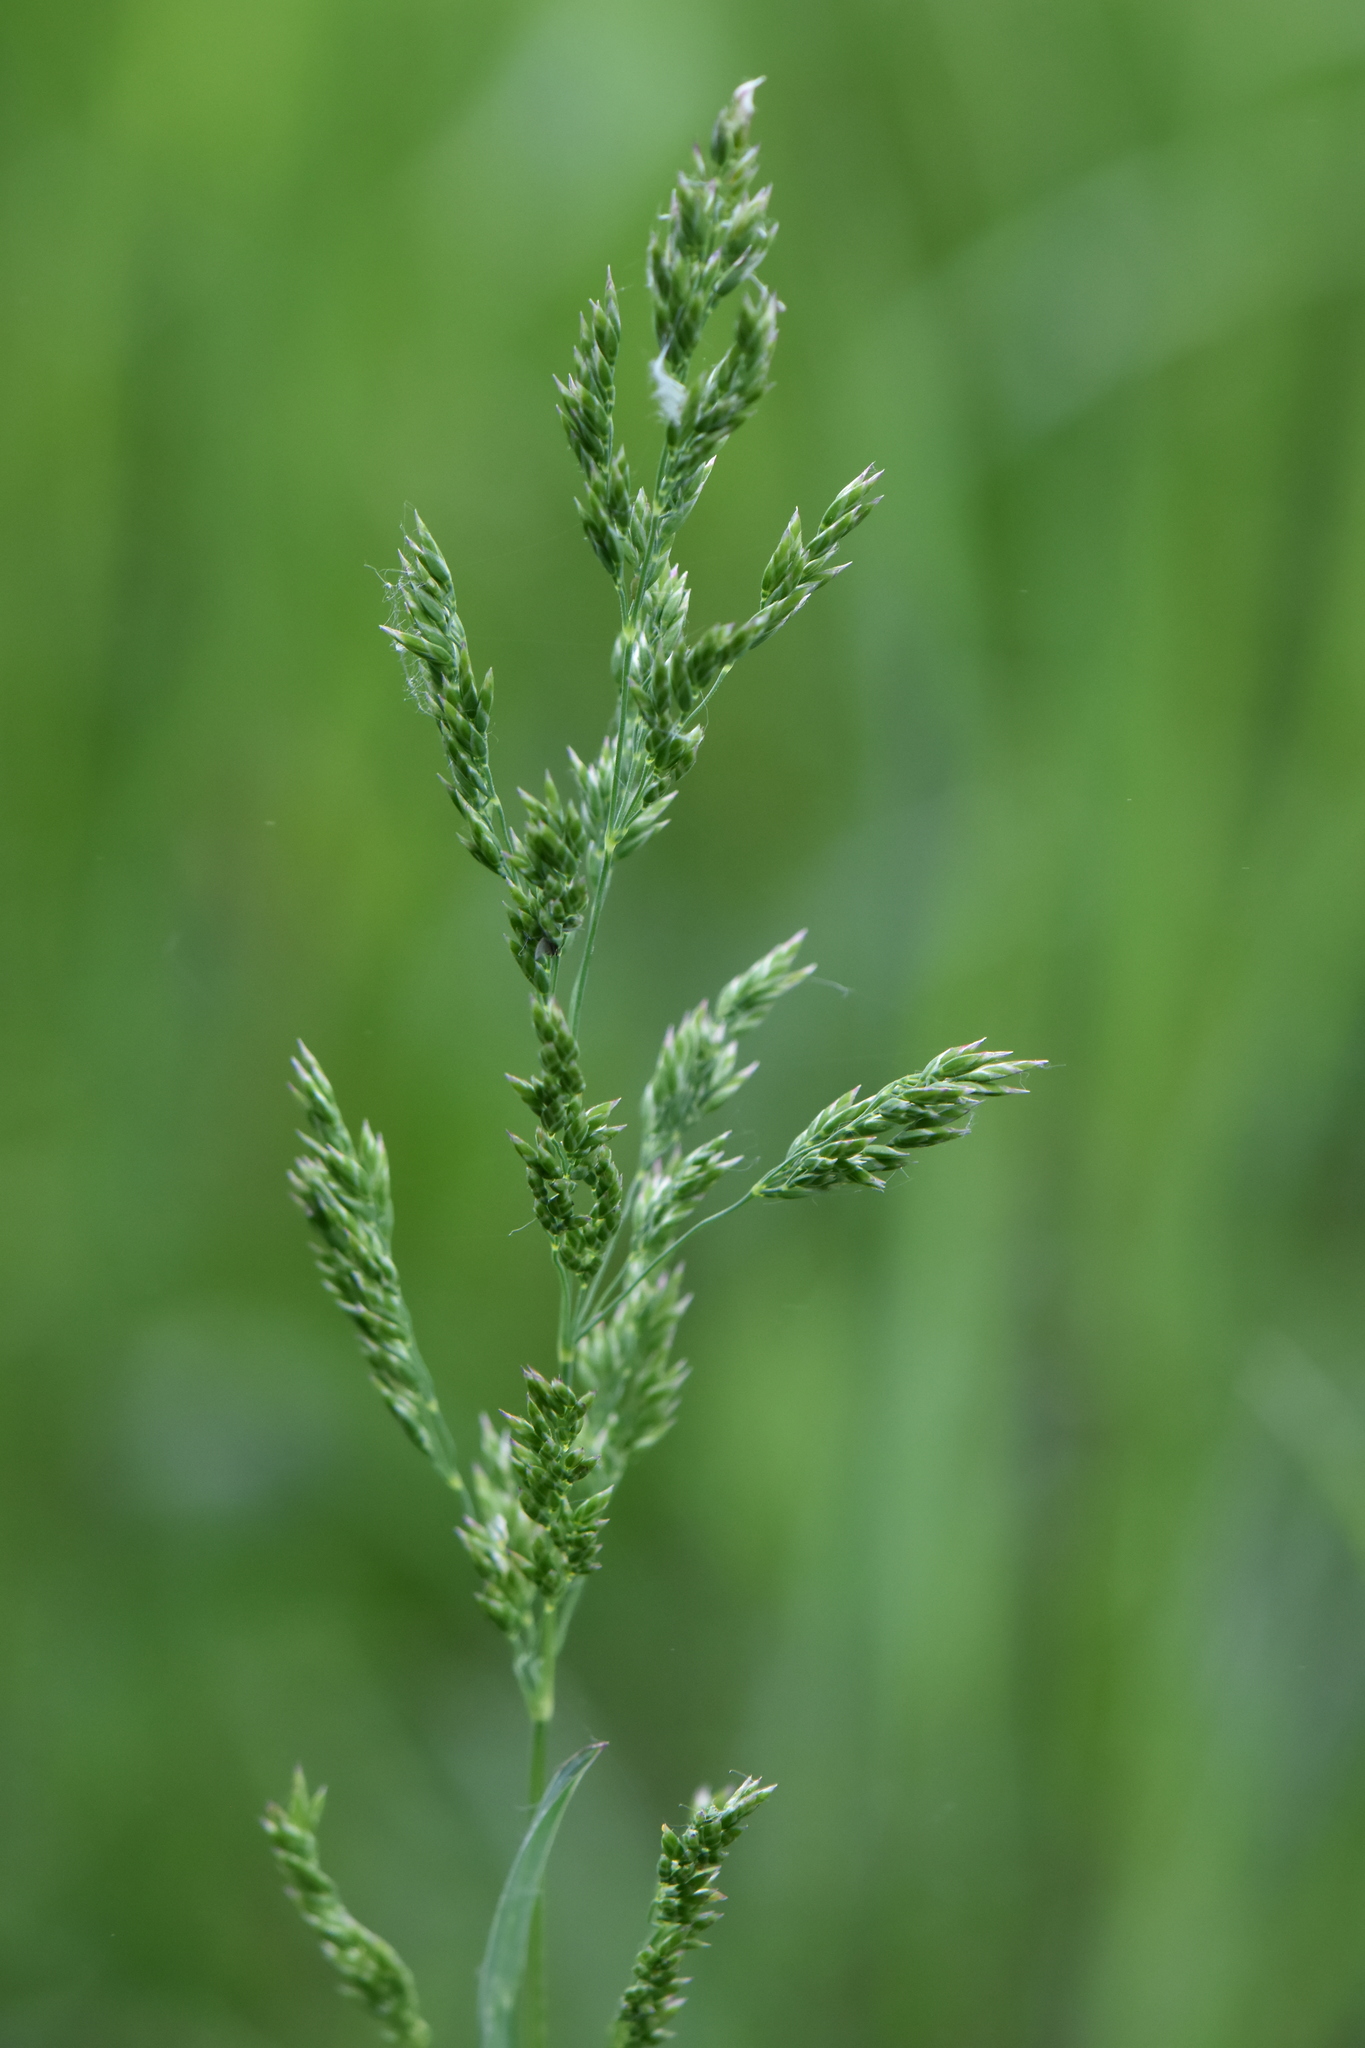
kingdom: Plantae
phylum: Tracheophyta
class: Liliopsida
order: Poales
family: Poaceae
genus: Poa
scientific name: Poa pratensis
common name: Kentucky bluegrass
